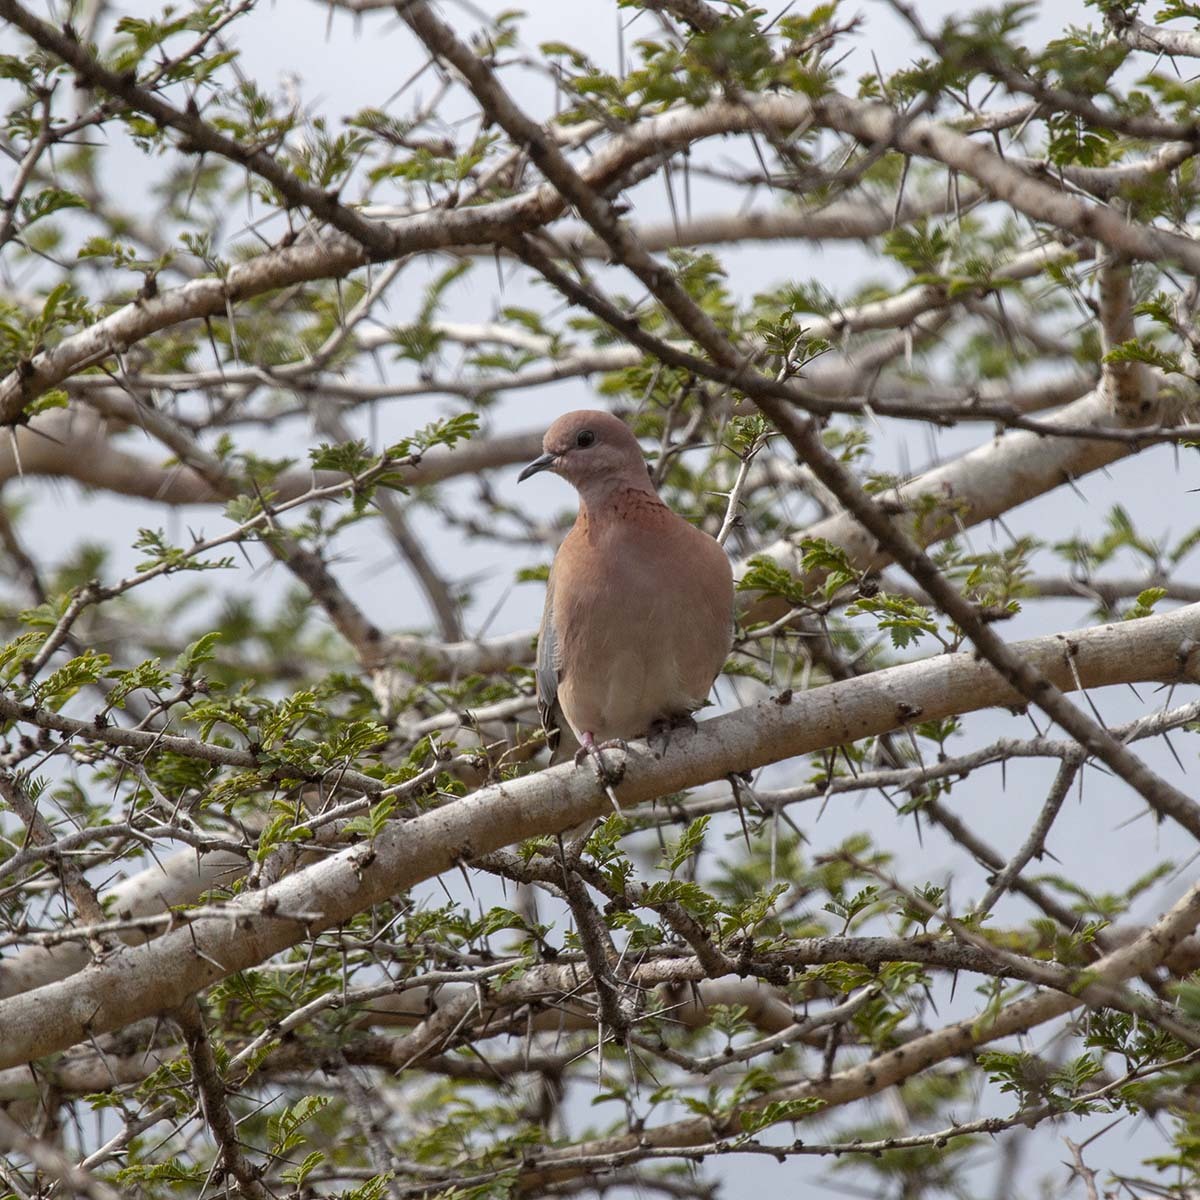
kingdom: Animalia
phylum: Chordata
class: Aves
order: Columbiformes
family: Columbidae
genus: Spilopelia
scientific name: Spilopelia senegalensis
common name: Laughing dove
